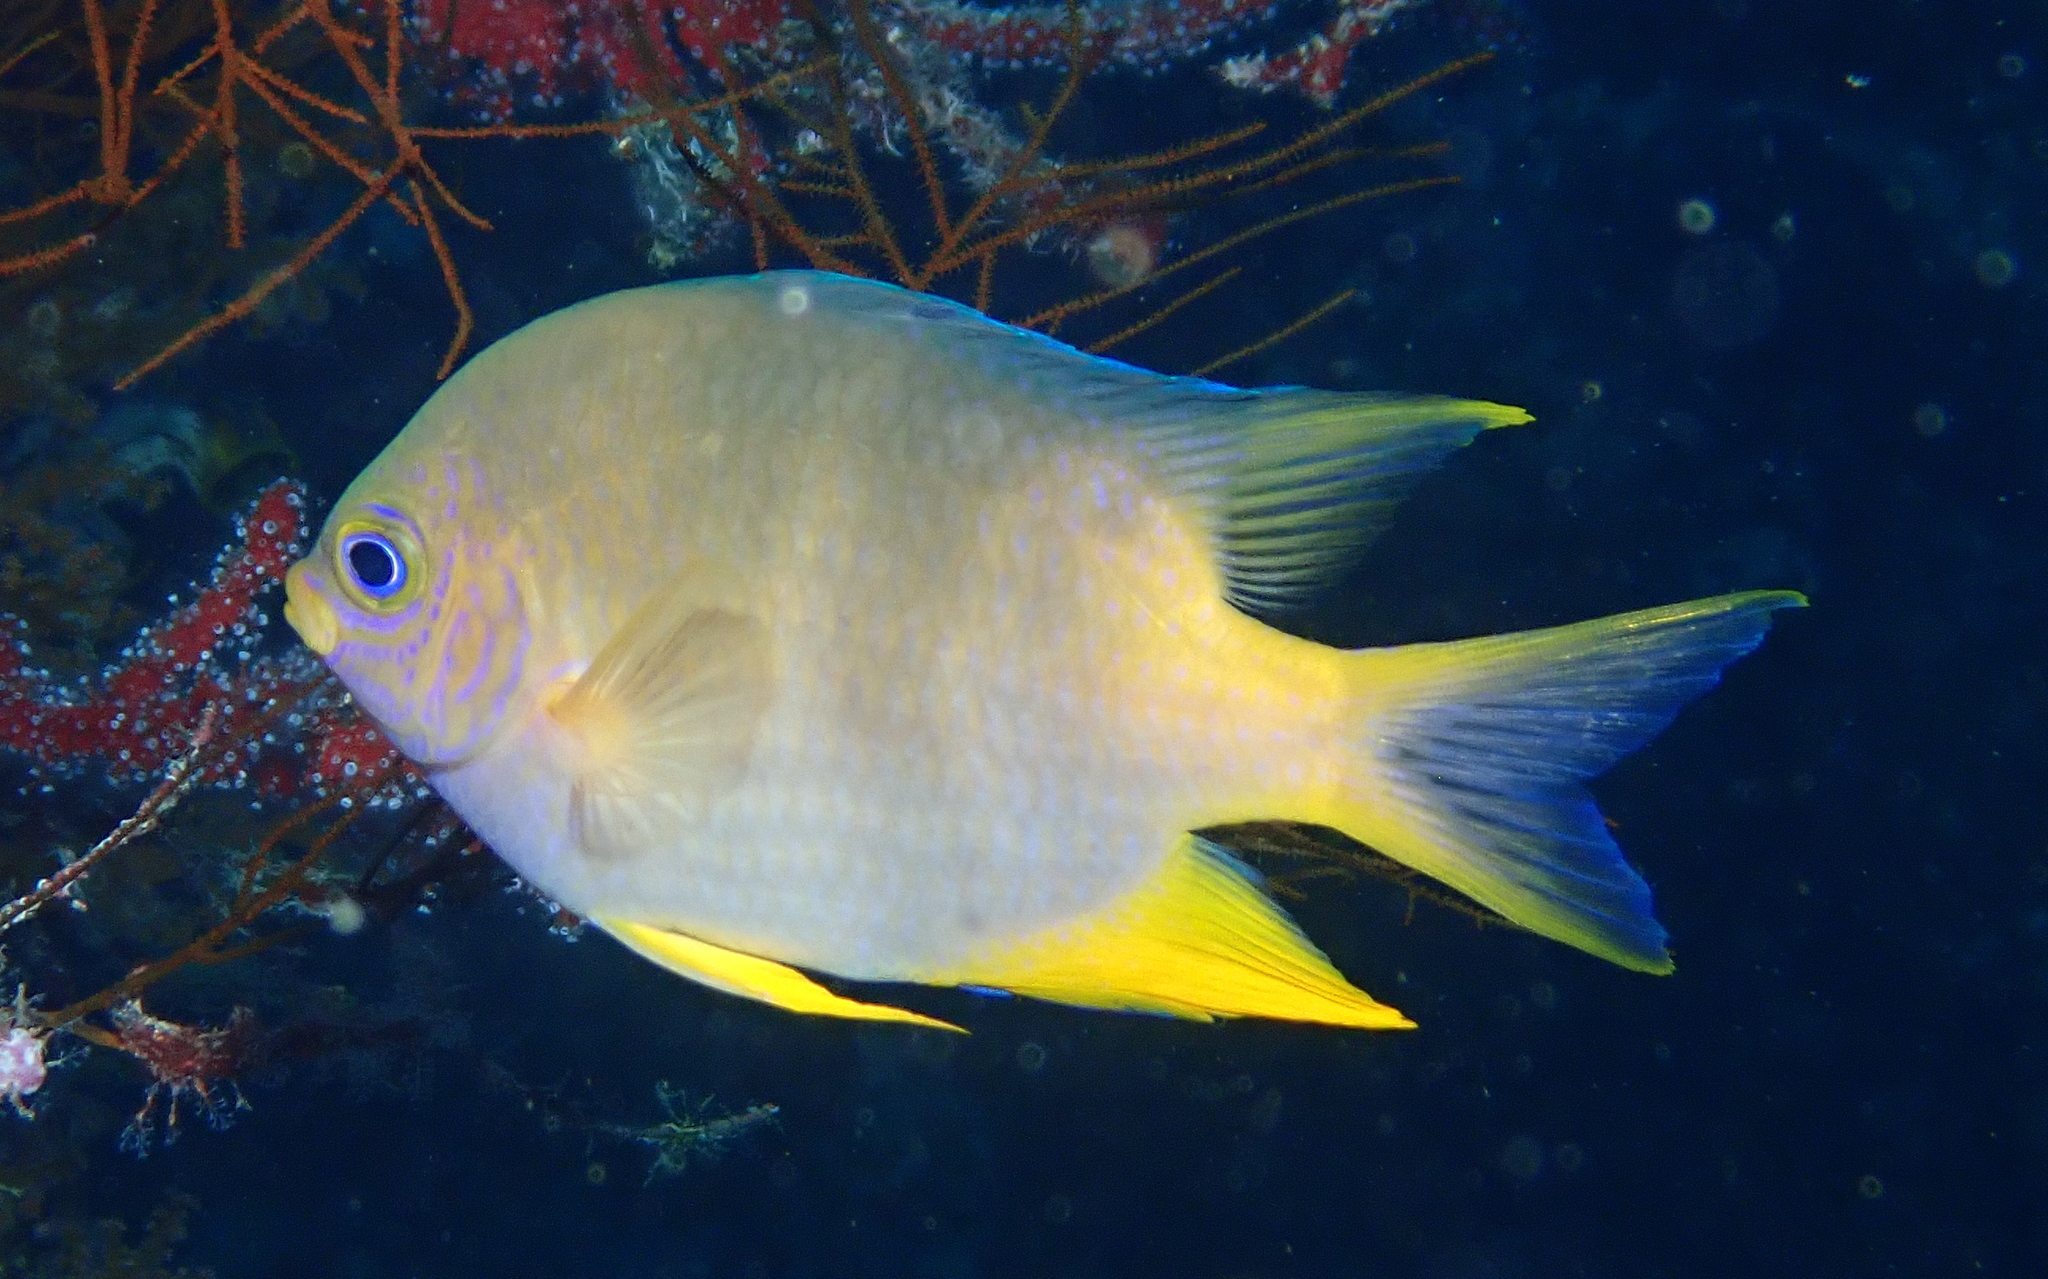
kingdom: Animalia
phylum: Chordata
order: Perciformes
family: Pomacentridae
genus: Amblyglyphidodon
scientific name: Amblyglyphidodon aureus
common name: Golden damsel
